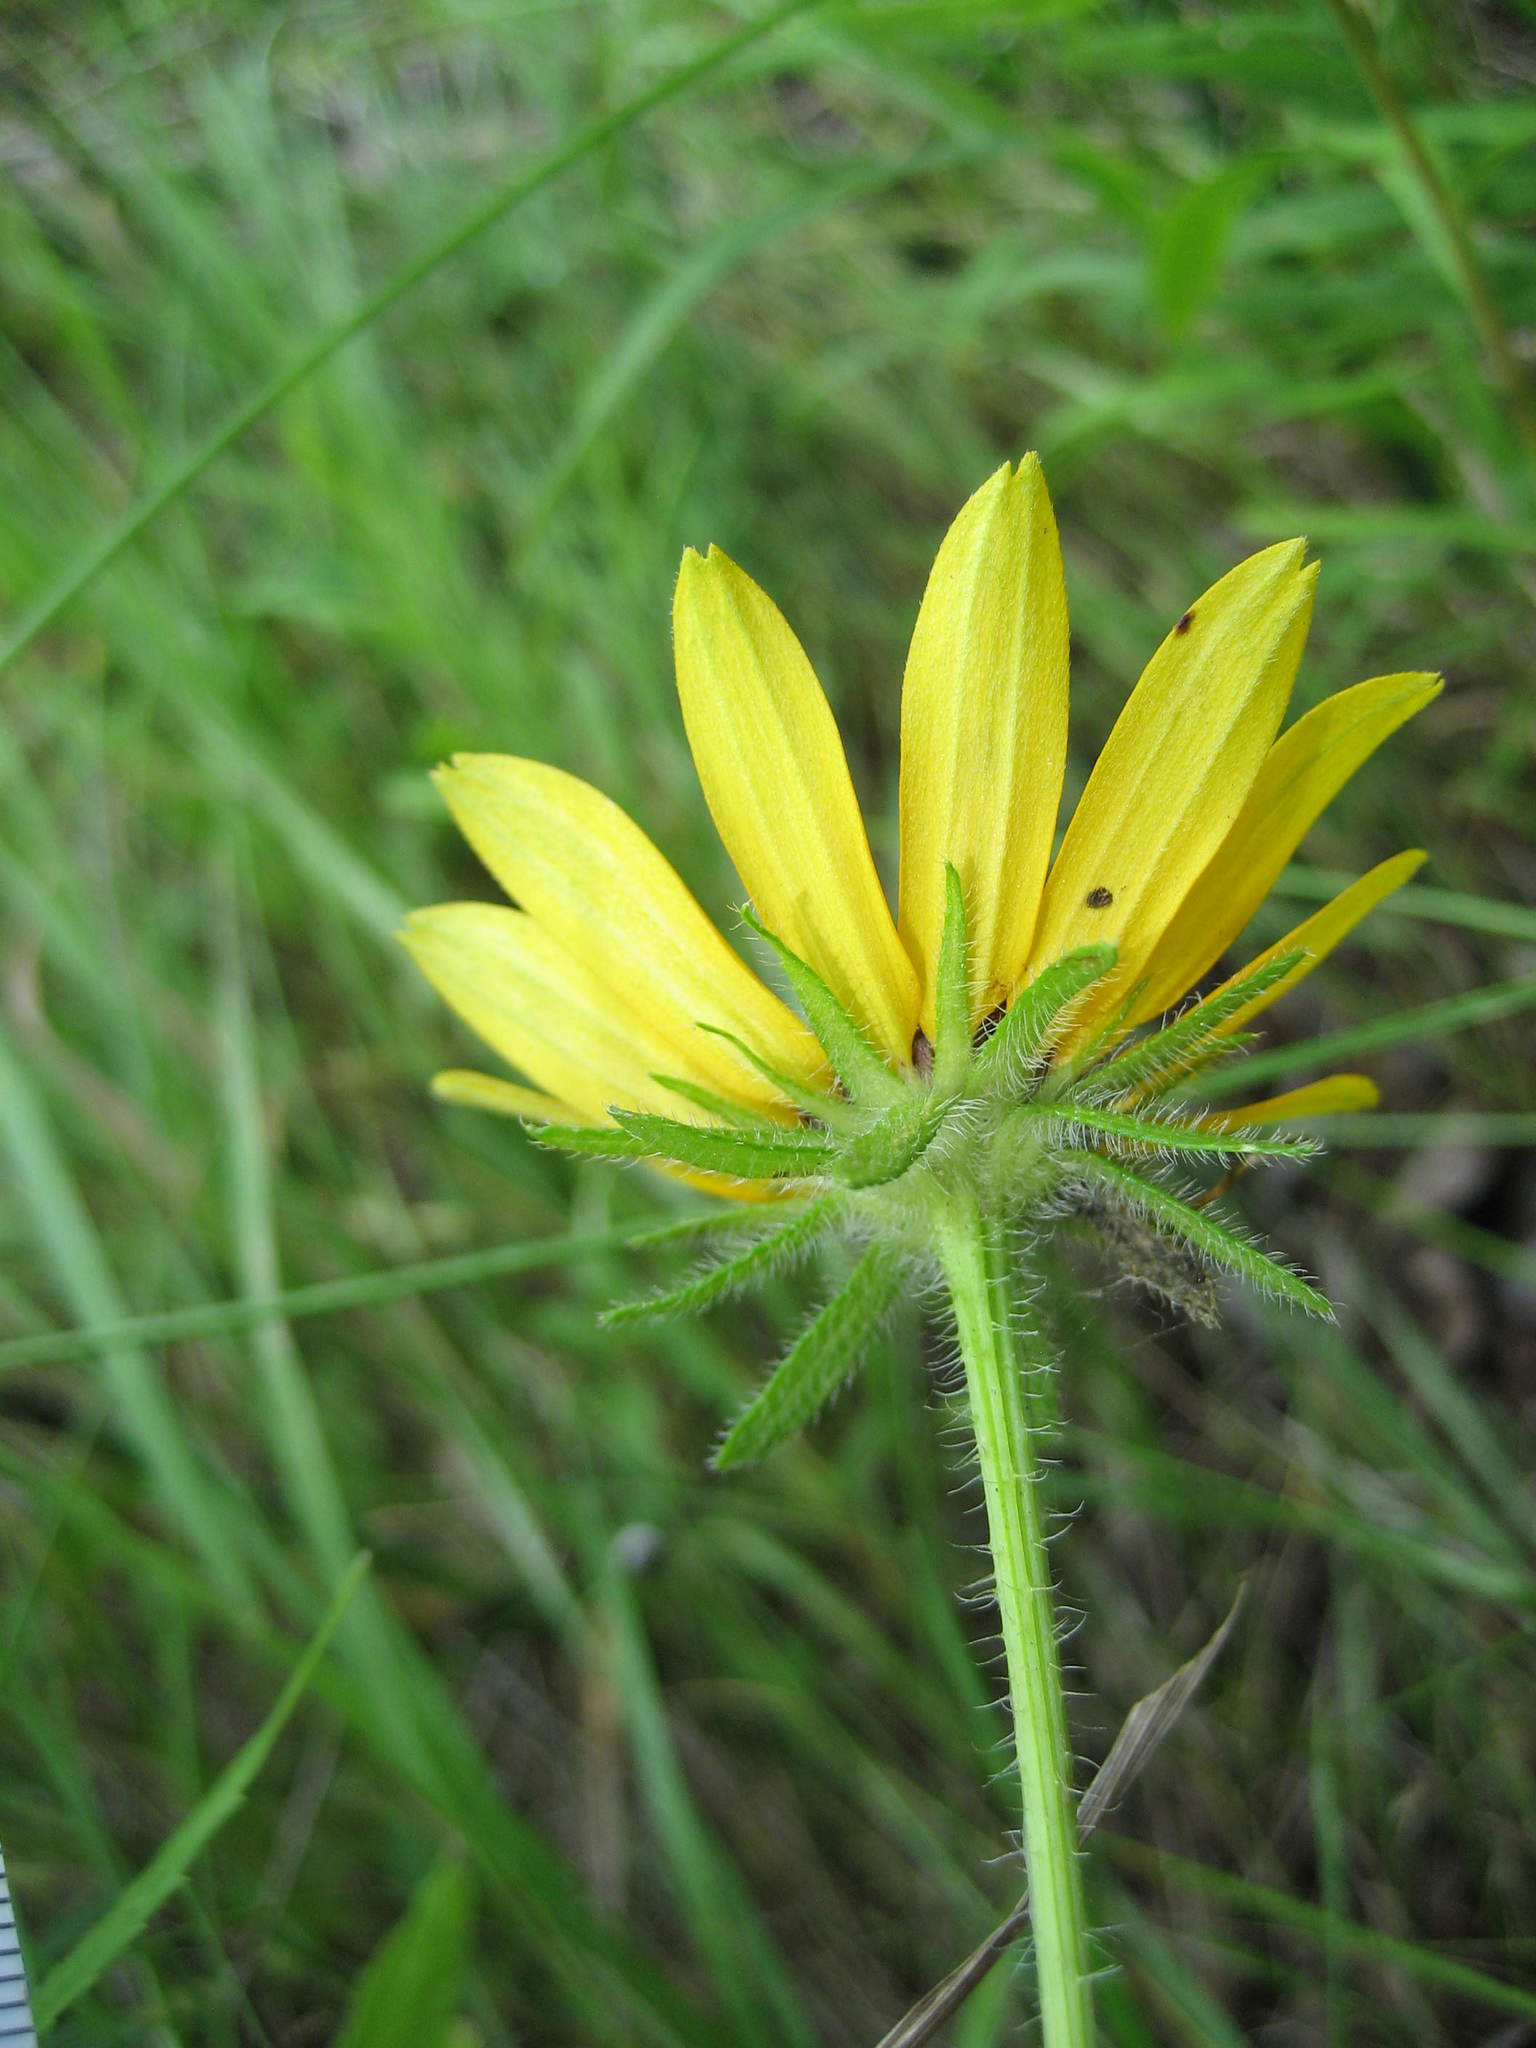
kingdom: Plantae
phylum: Tracheophyta
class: Magnoliopsida
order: Asterales
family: Asteraceae
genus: Rudbeckia
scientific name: Rudbeckia hirta
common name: Black-eyed-susan
